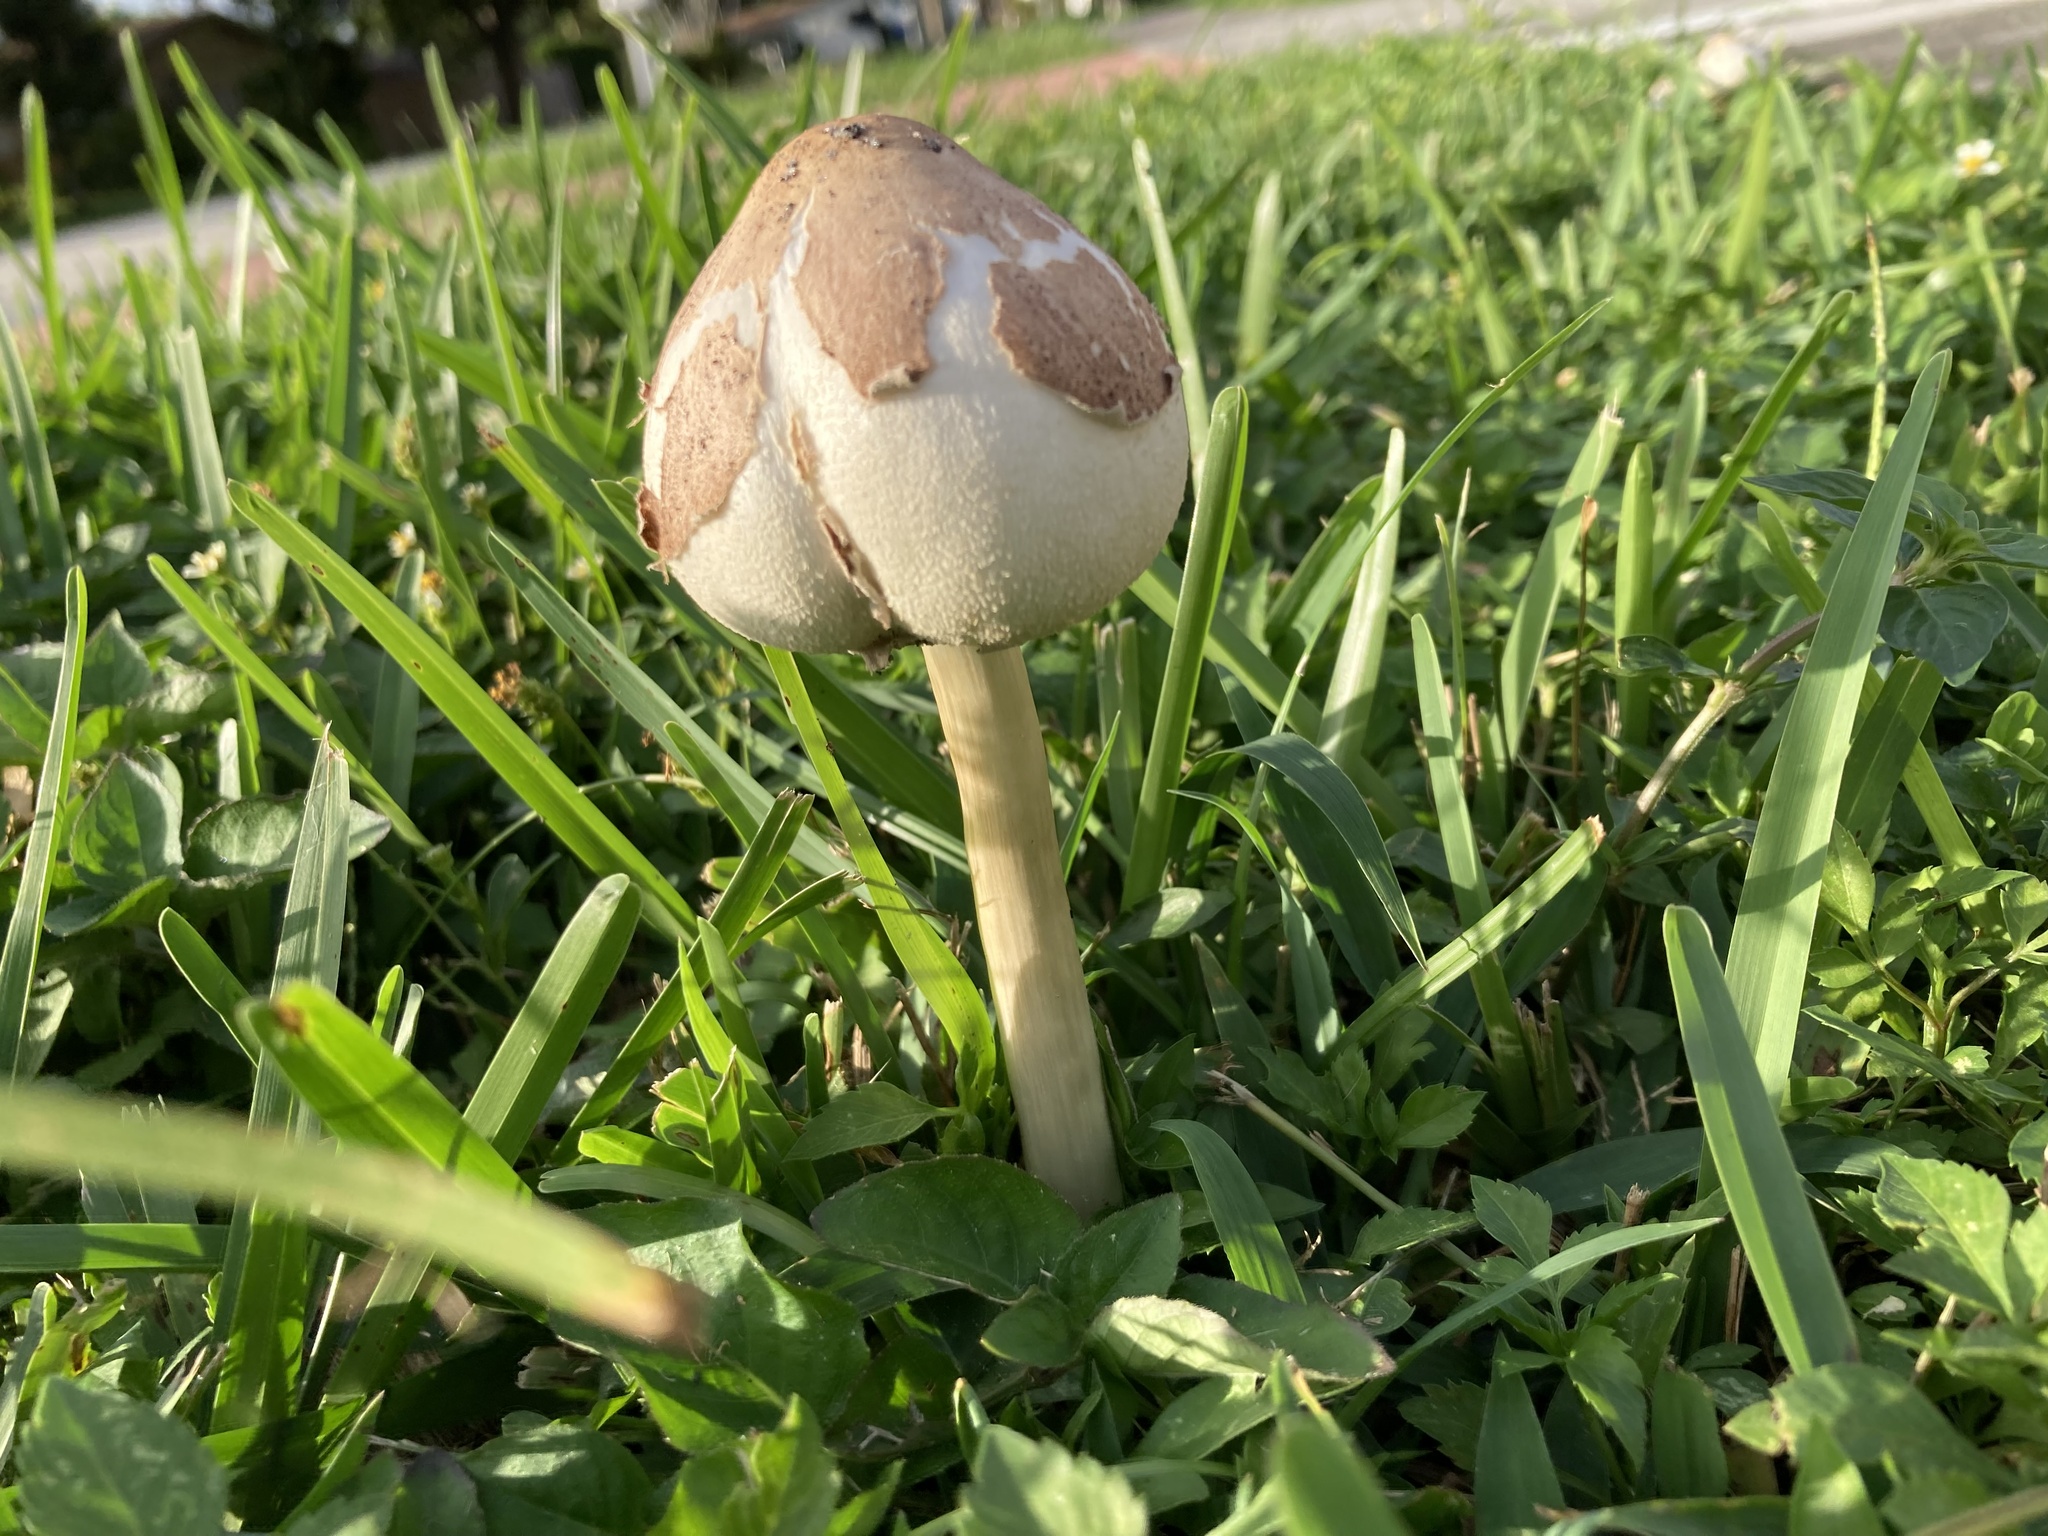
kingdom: Fungi
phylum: Basidiomycota
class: Agaricomycetes
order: Agaricales
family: Agaricaceae
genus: Chlorophyllum
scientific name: Chlorophyllum molybdites
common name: False parasol
